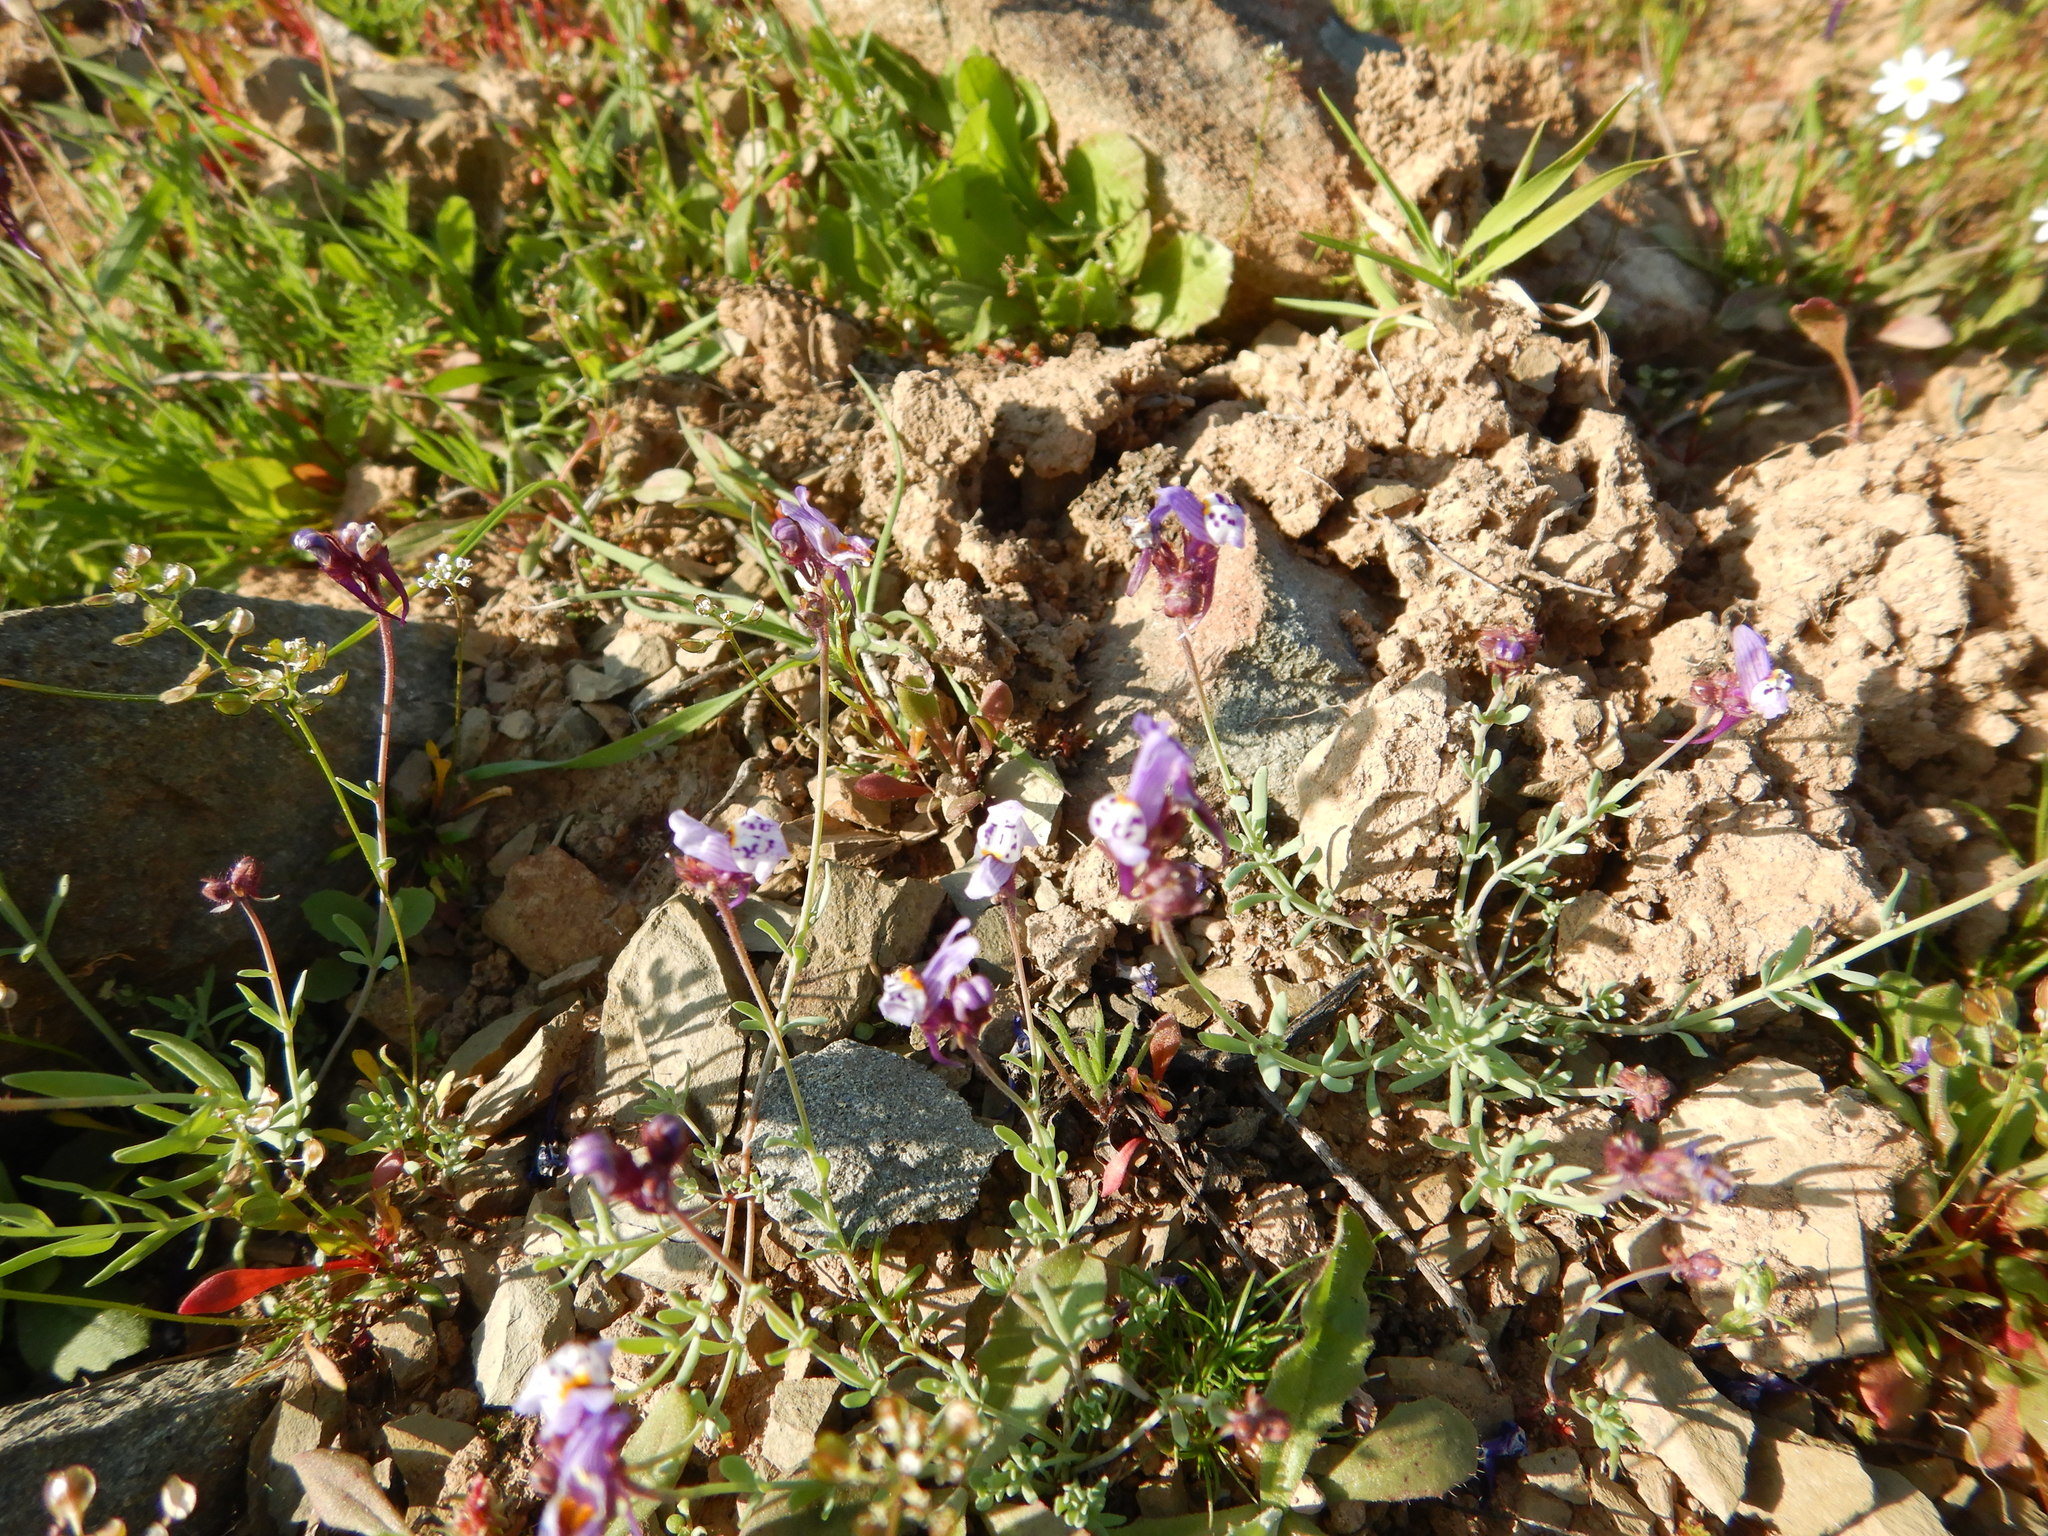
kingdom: Plantae
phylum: Tracheophyta
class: Magnoliopsida
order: Lamiales
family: Plantaginaceae
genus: Linaria
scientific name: Linaria amethystea
